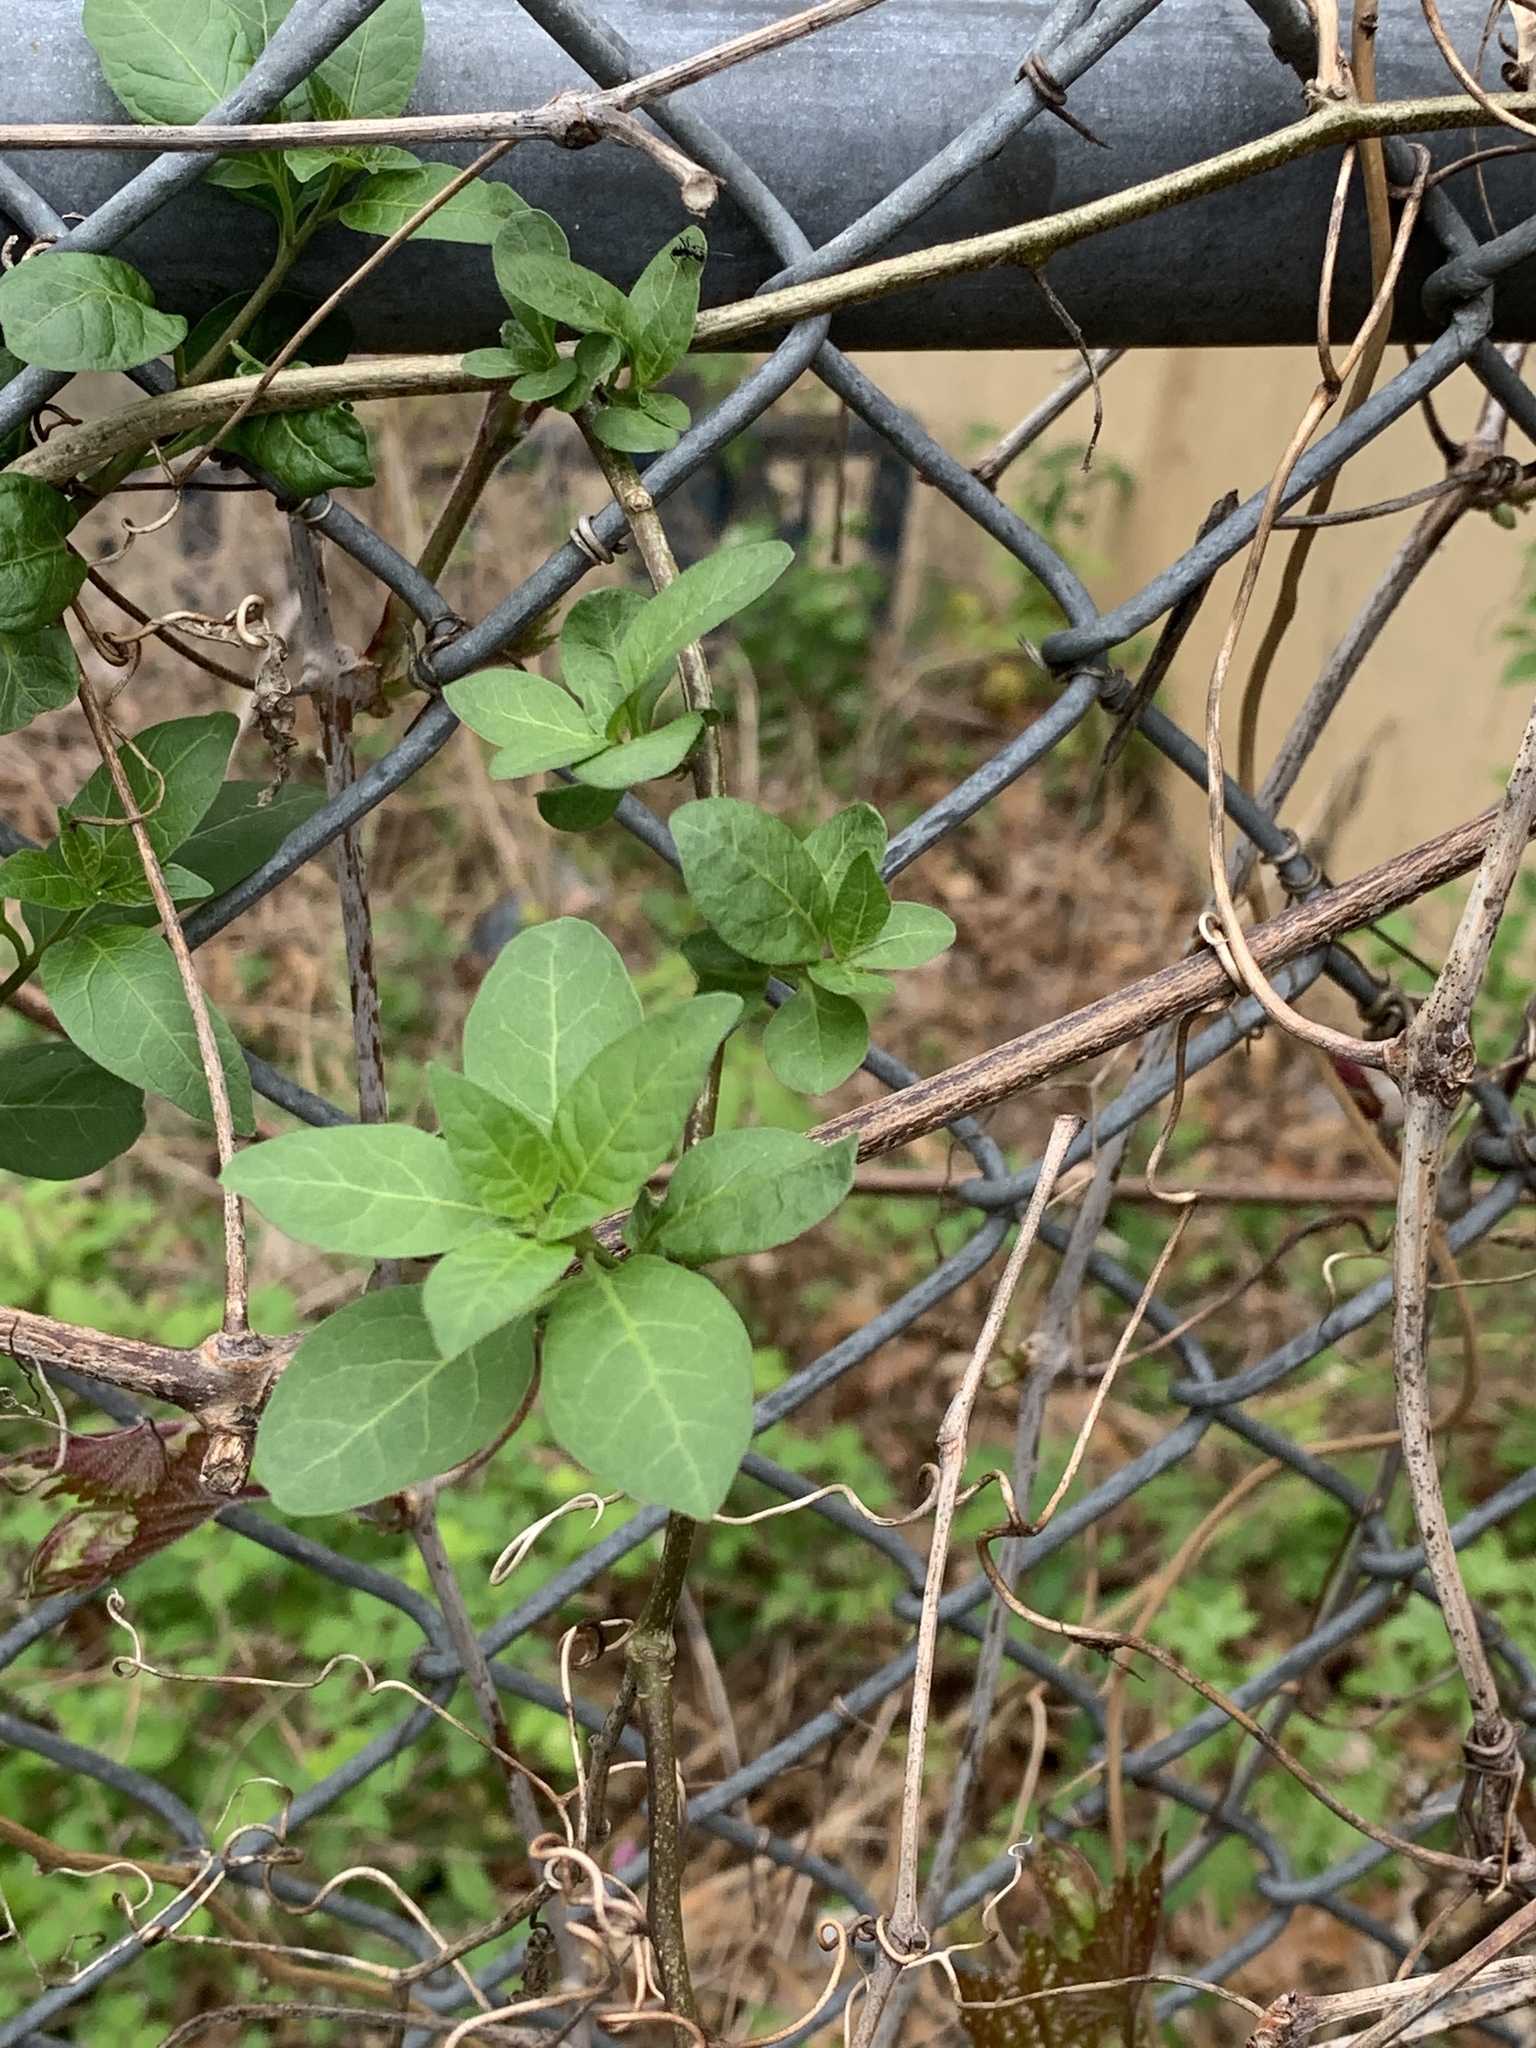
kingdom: Plantae
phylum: Tracheophyta
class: Magnoliopsida
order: Dipsacales
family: Caprifoliaceae
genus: Lonicera
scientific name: Lonicera japonica
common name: Japanese honeysuckle
